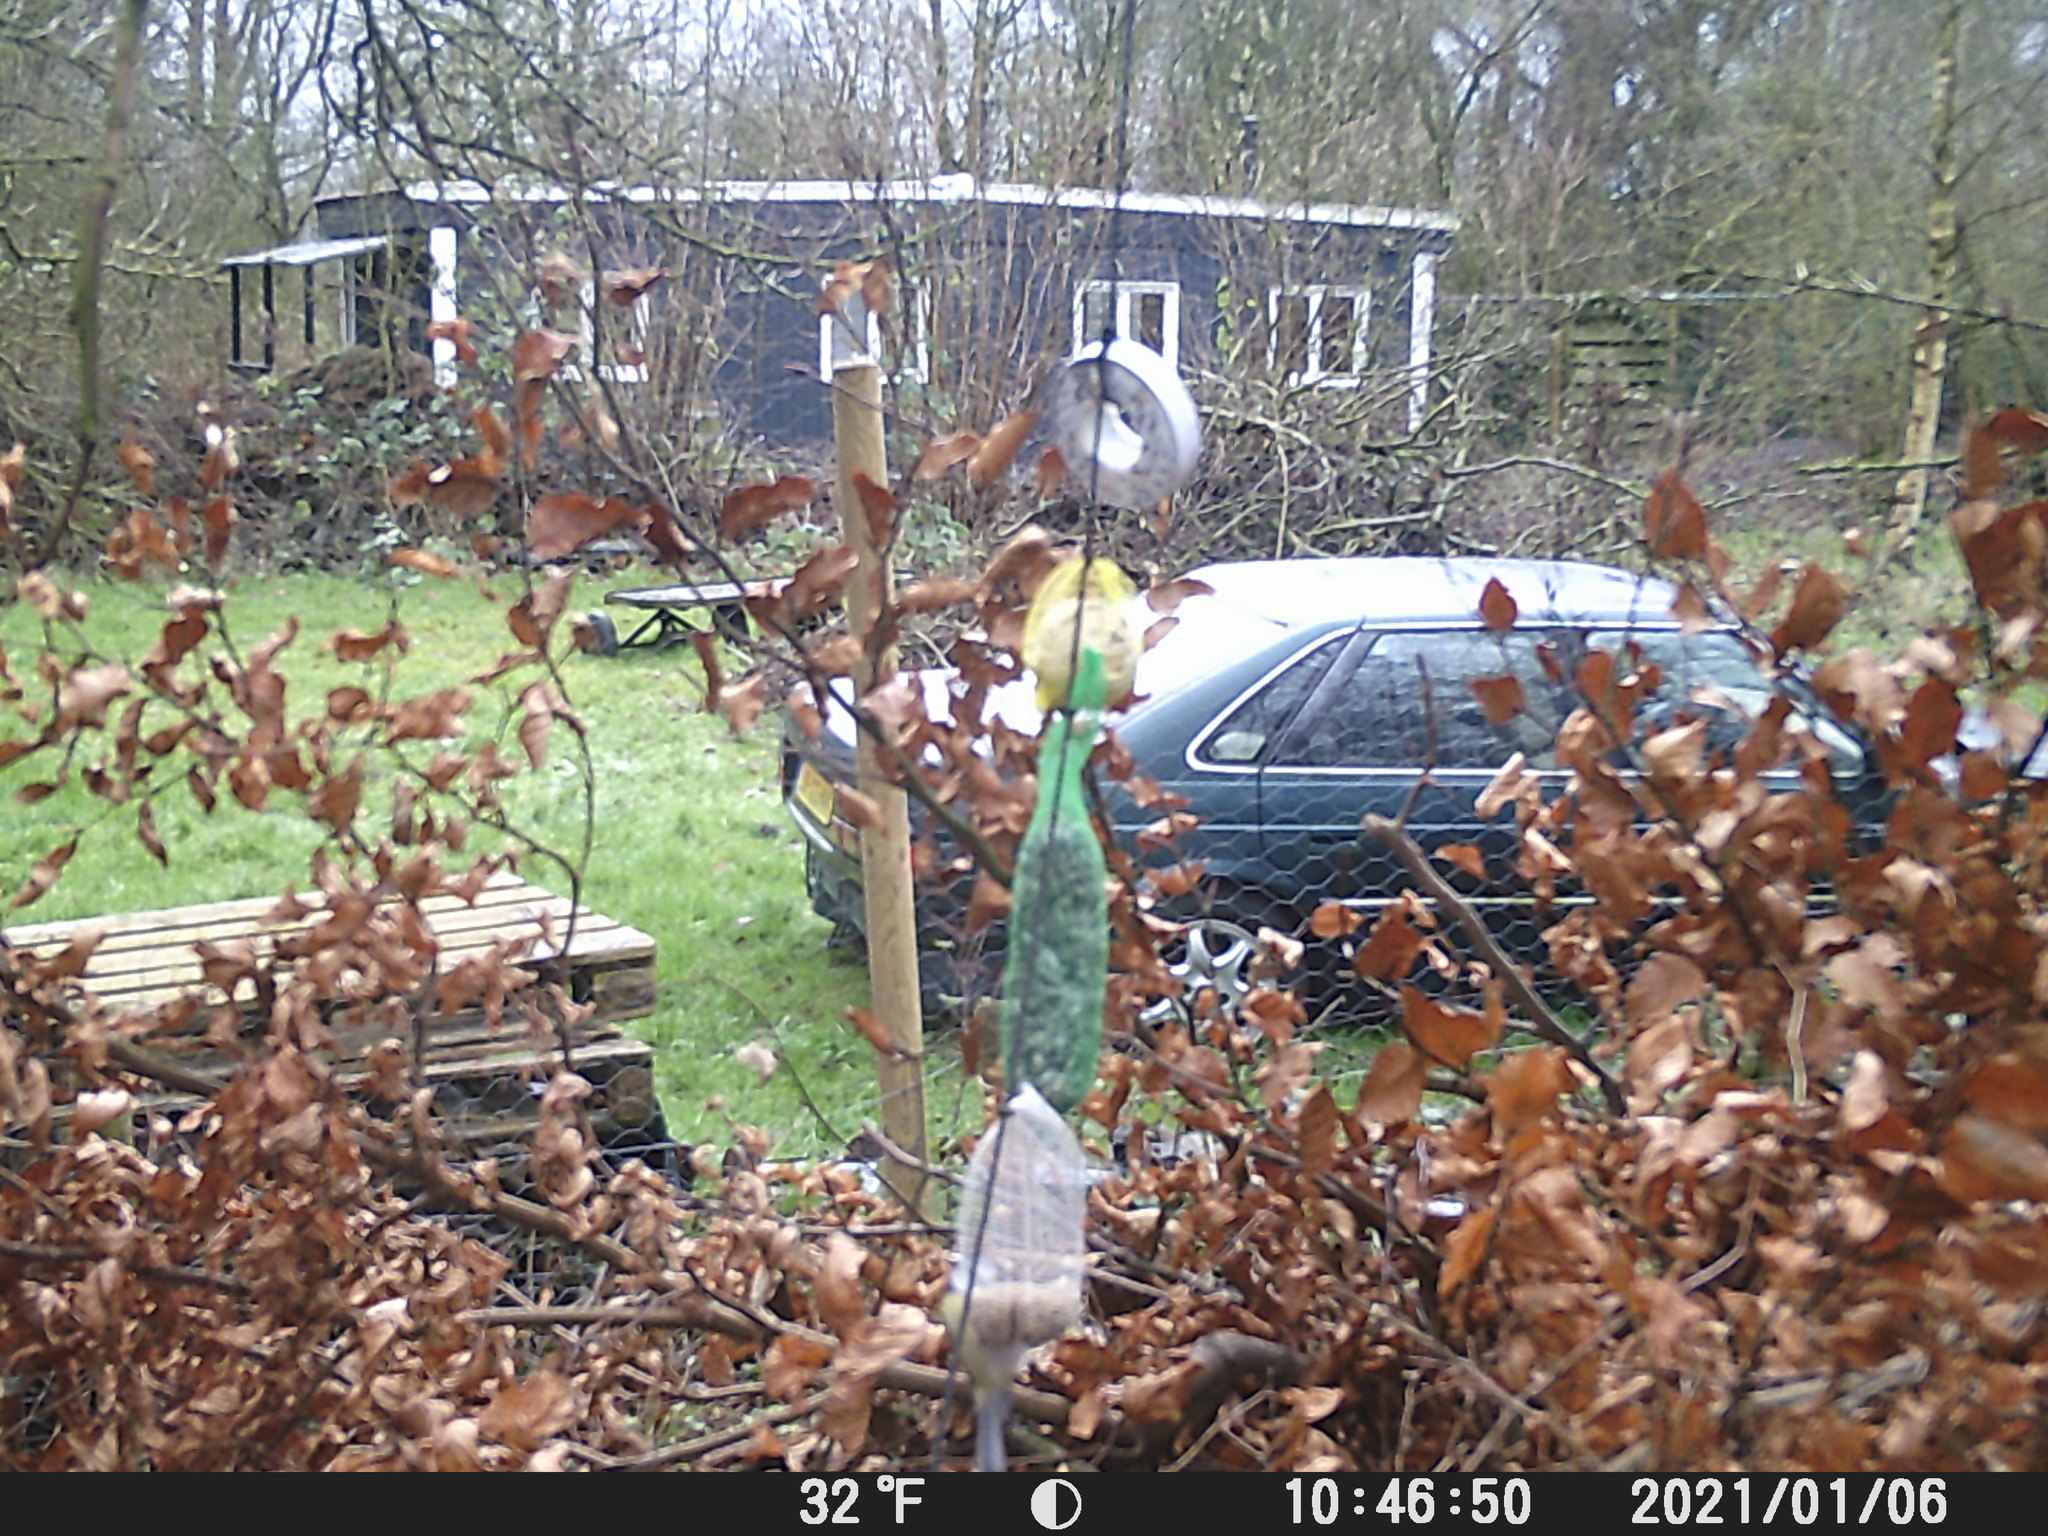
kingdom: Animalia
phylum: Chordata
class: Aves
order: Passeriformes
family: Paridae
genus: Cyanistes
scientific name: Cyanistes caeruleus
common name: Eurasian blue tit
